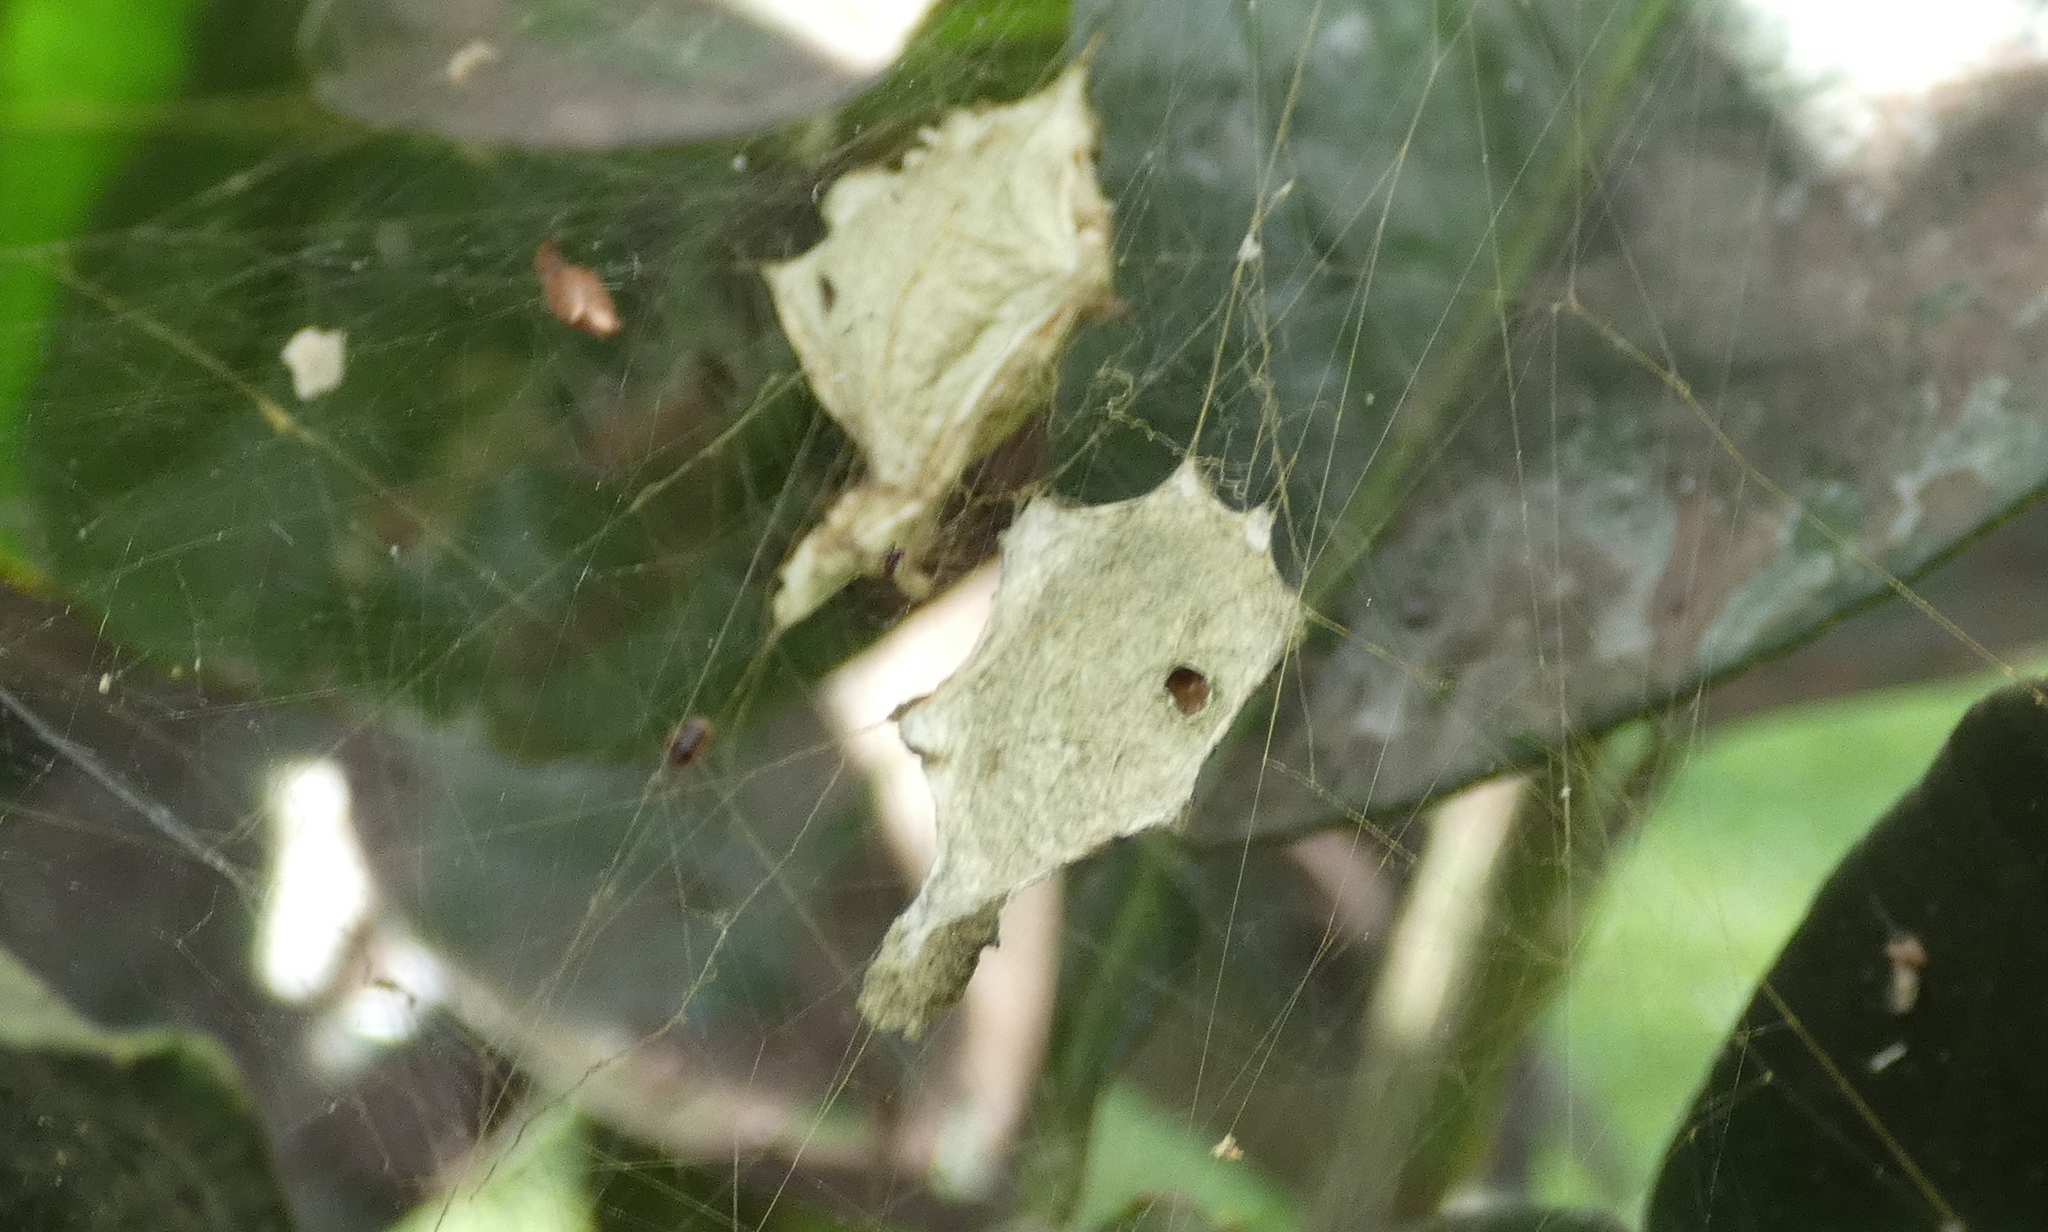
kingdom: Animalia
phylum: Arthropoda
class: Arachnida
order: Araneae
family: Araneidae
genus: Argiope
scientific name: Argiope argentata
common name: Orb weavers
